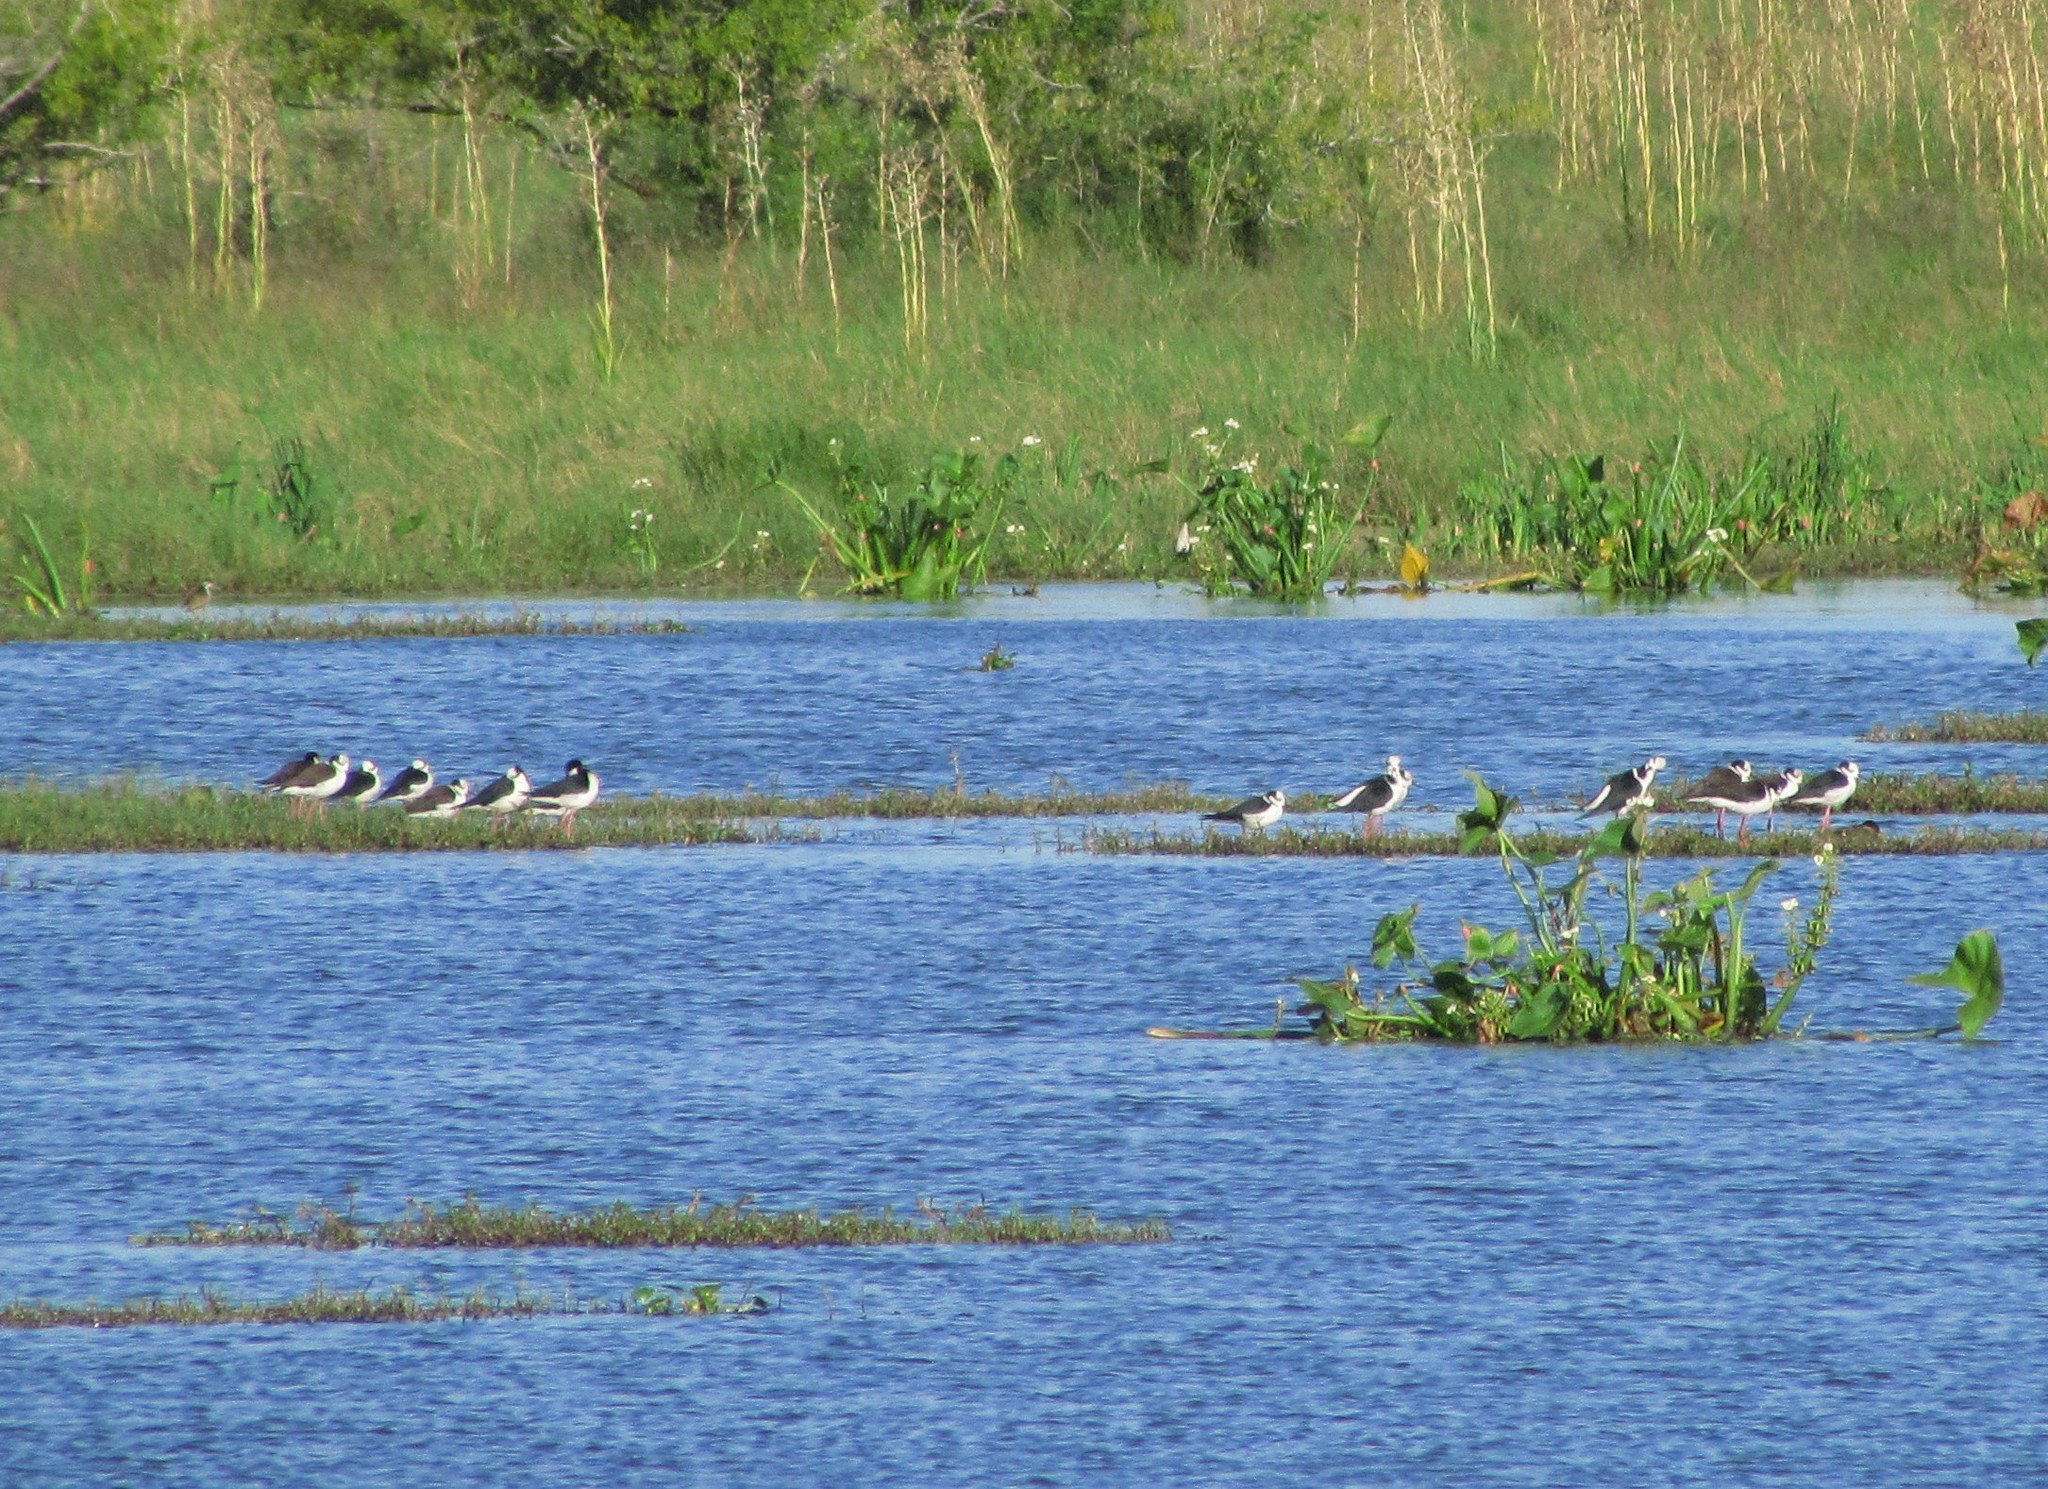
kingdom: Animalia
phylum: Chordata
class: Aves
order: Charadriiformes
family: Recurvirostridae
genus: Himantopus
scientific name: Himantopus mexicanus
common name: Black-necked stilt
